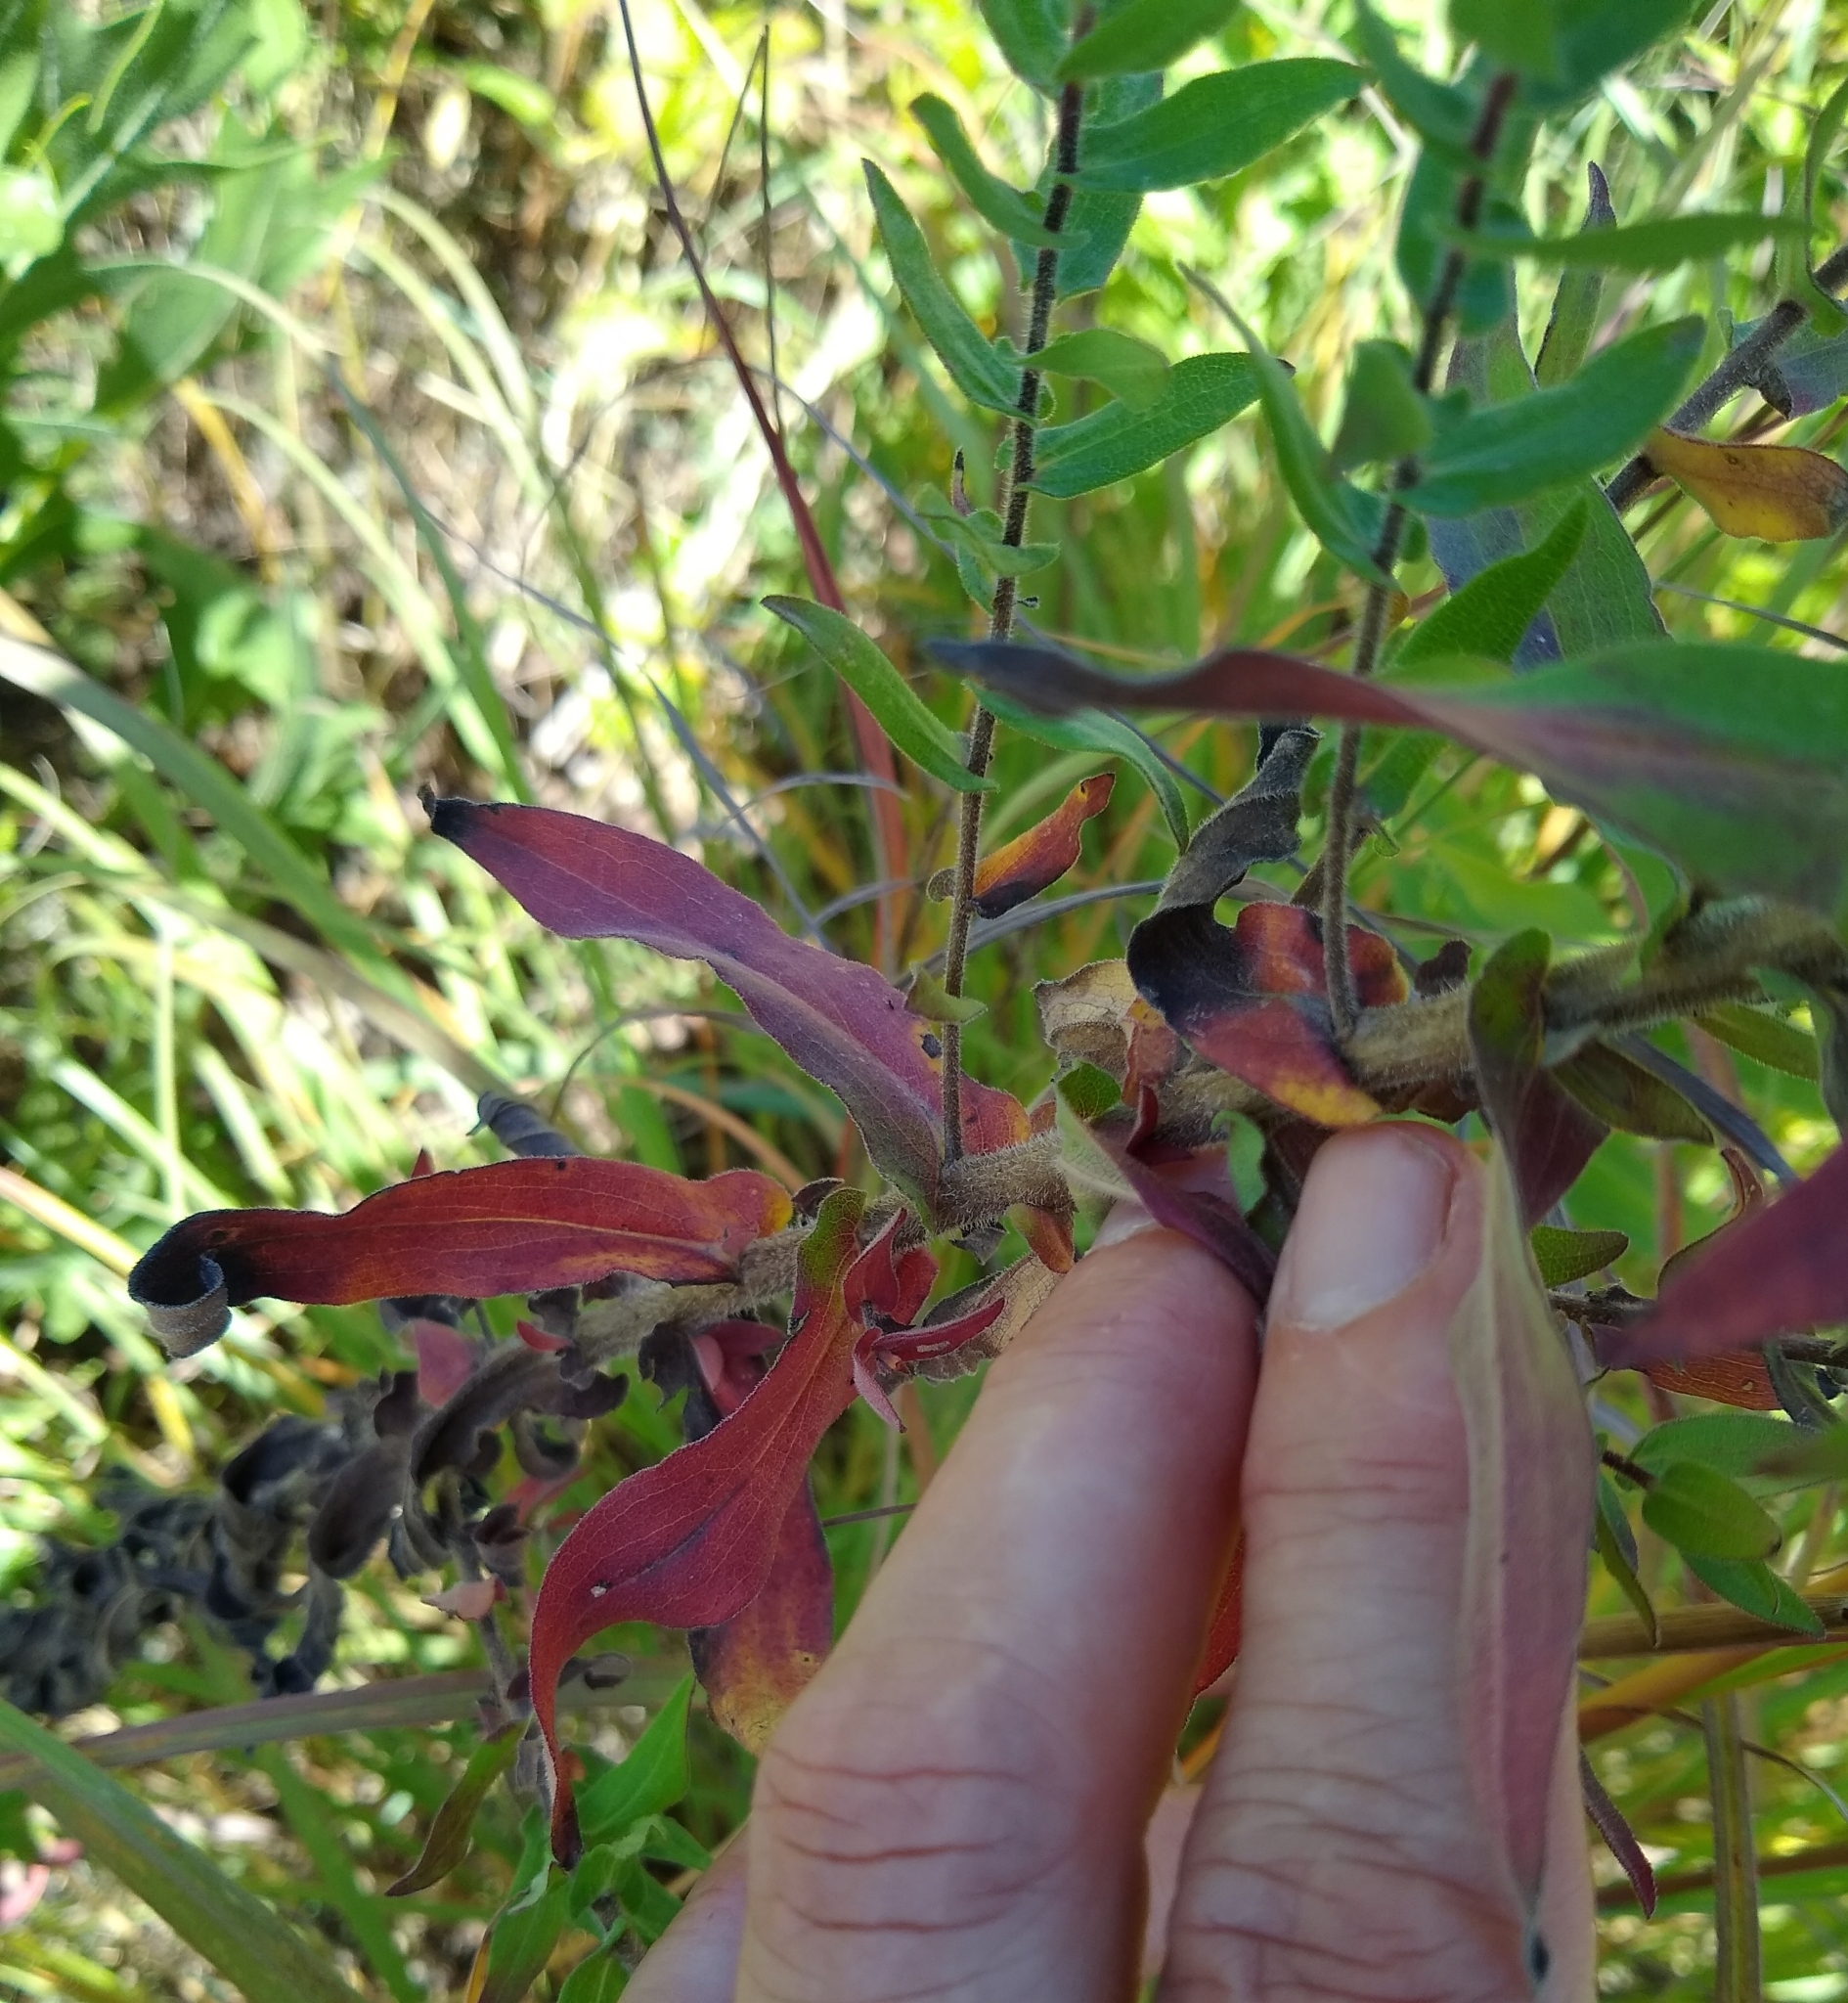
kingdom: Plantae
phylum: Tracheophyta
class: Magnoliopsida
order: Asterales
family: Asteraceae
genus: Symphyotrichum
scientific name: Symphyotrichum novae-angliae
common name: Michaelmas daisy
